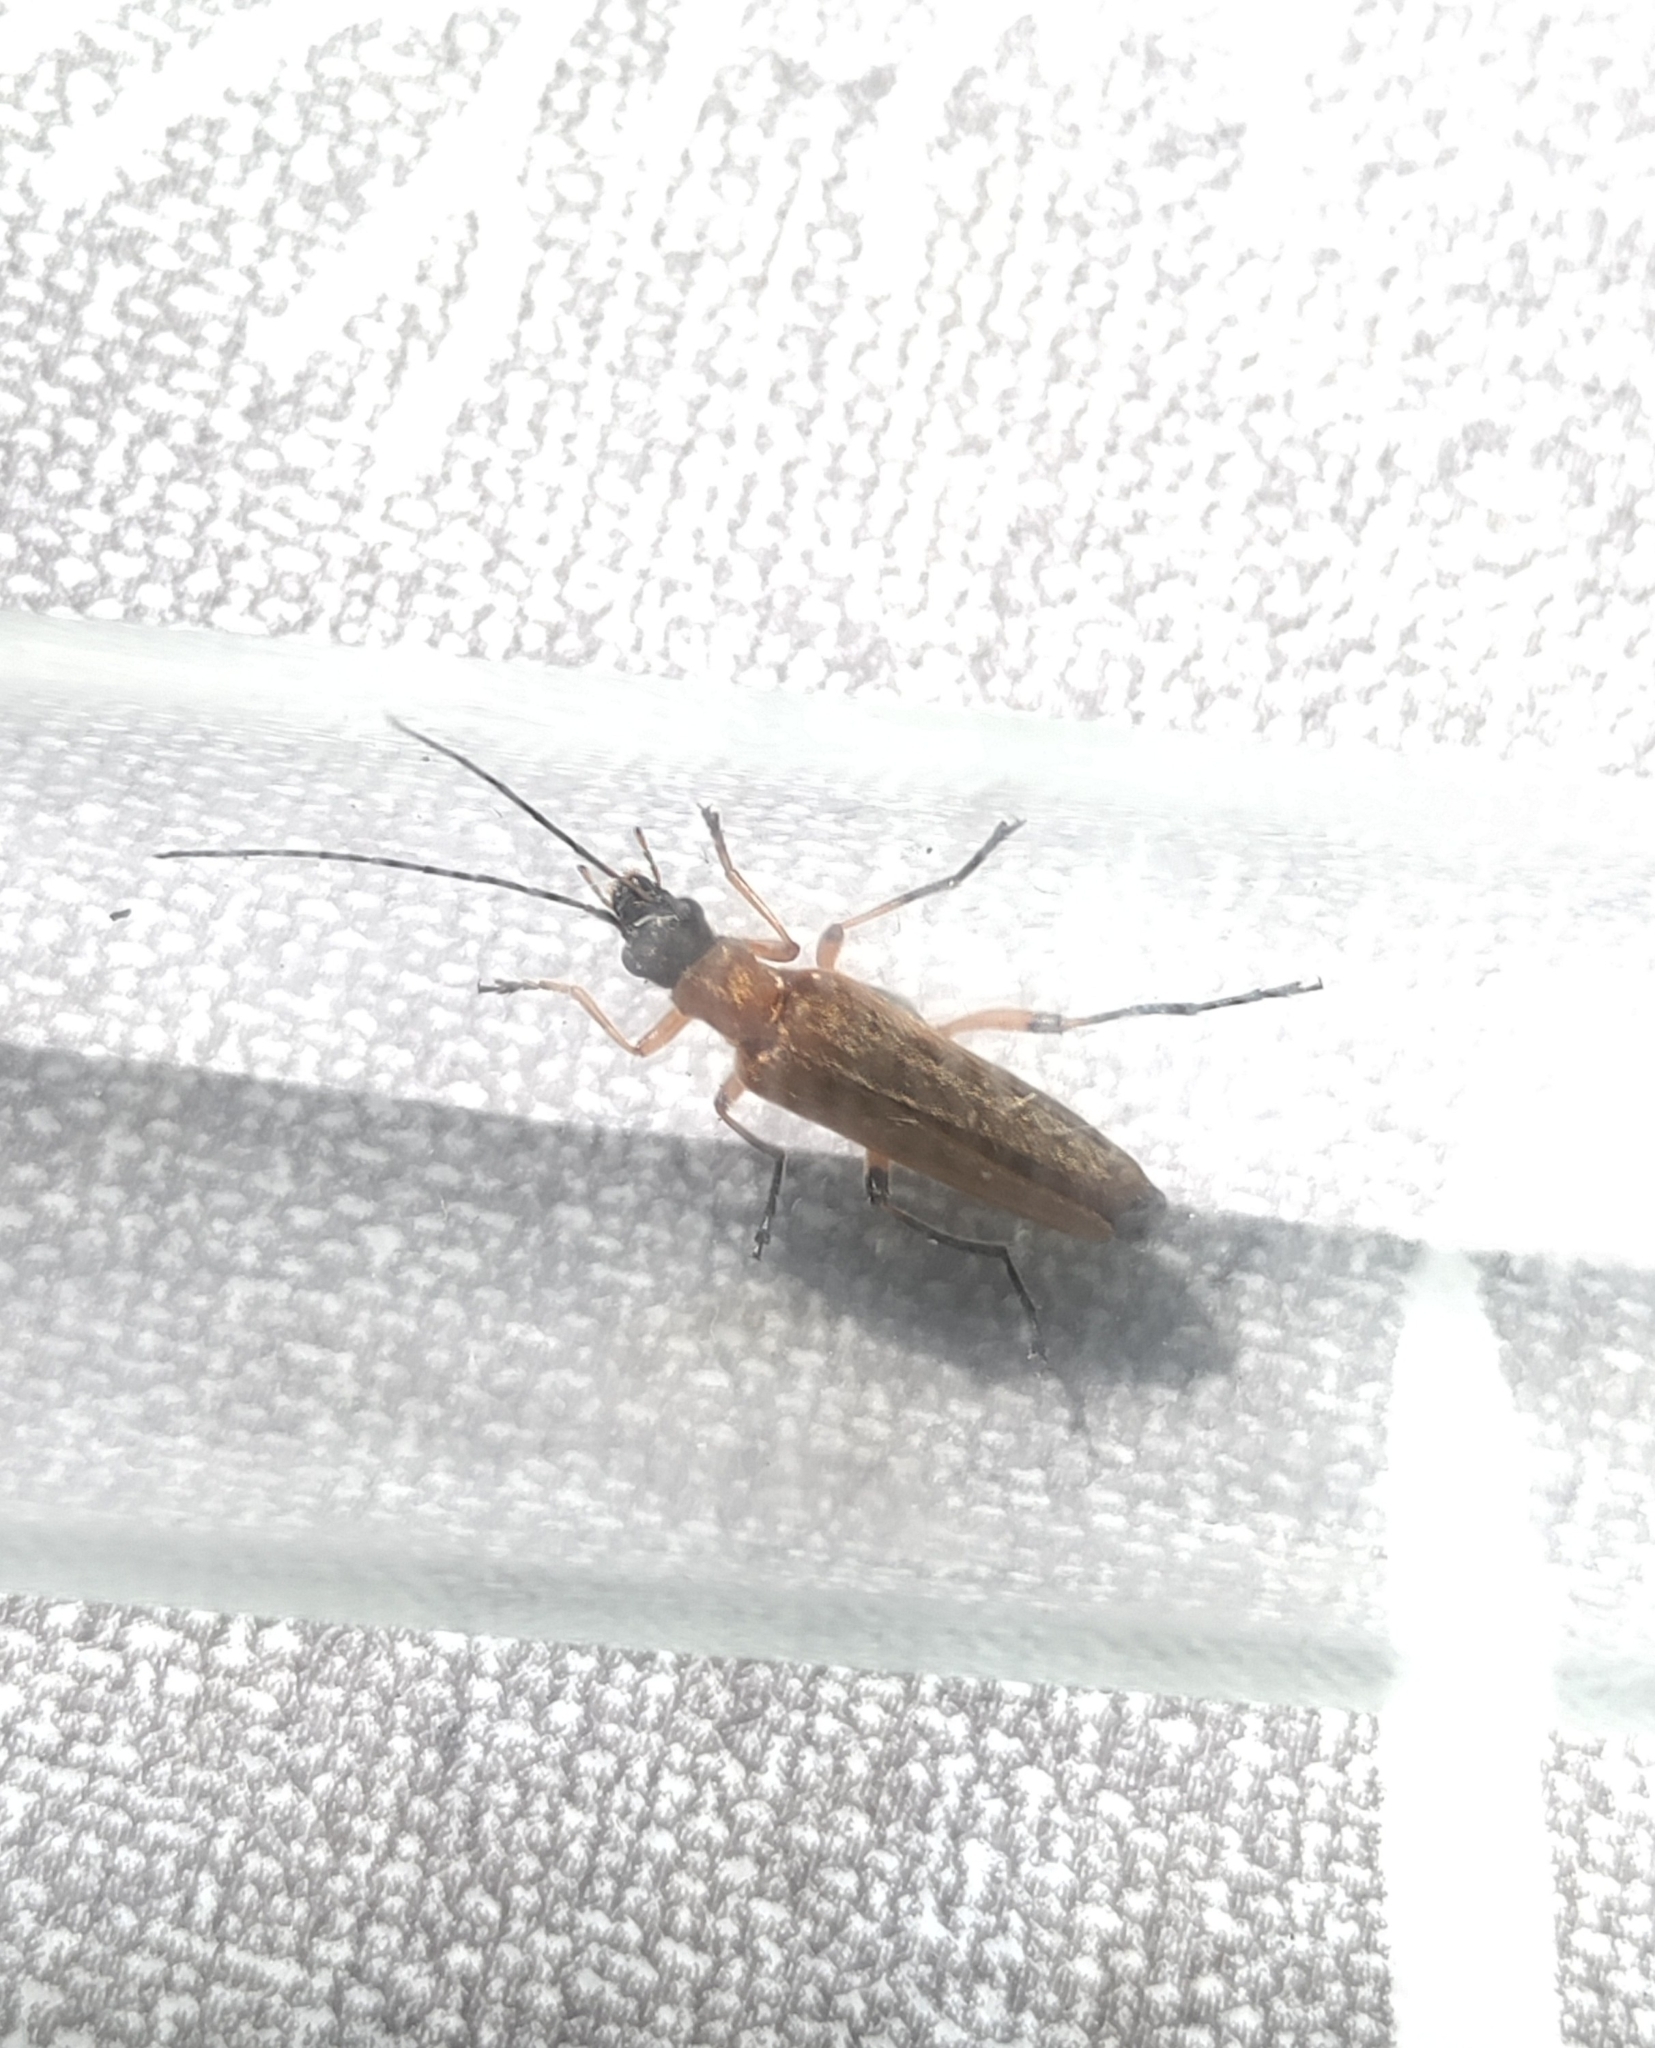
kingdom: Animalia
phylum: Arthropoda
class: Insecta
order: Coleoptera
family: Oedemeridae
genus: Oedemera
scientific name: Oedemera podagrariae
